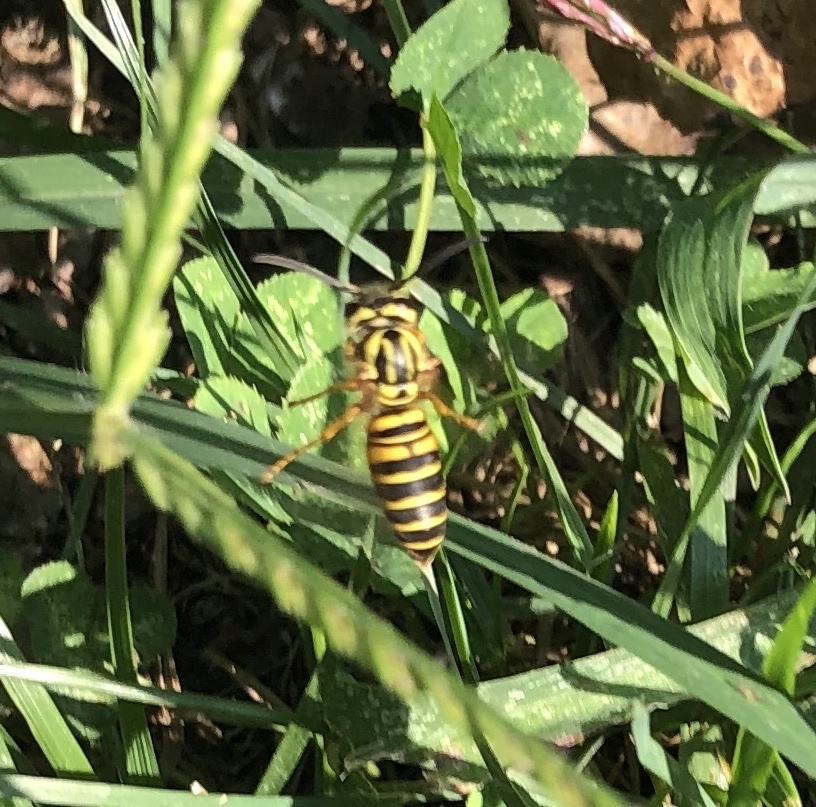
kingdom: Animalia
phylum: Arthropoda
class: Insecta
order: Hymenoptera
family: Vespidae
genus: Vespula
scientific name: Vespula squamosa
